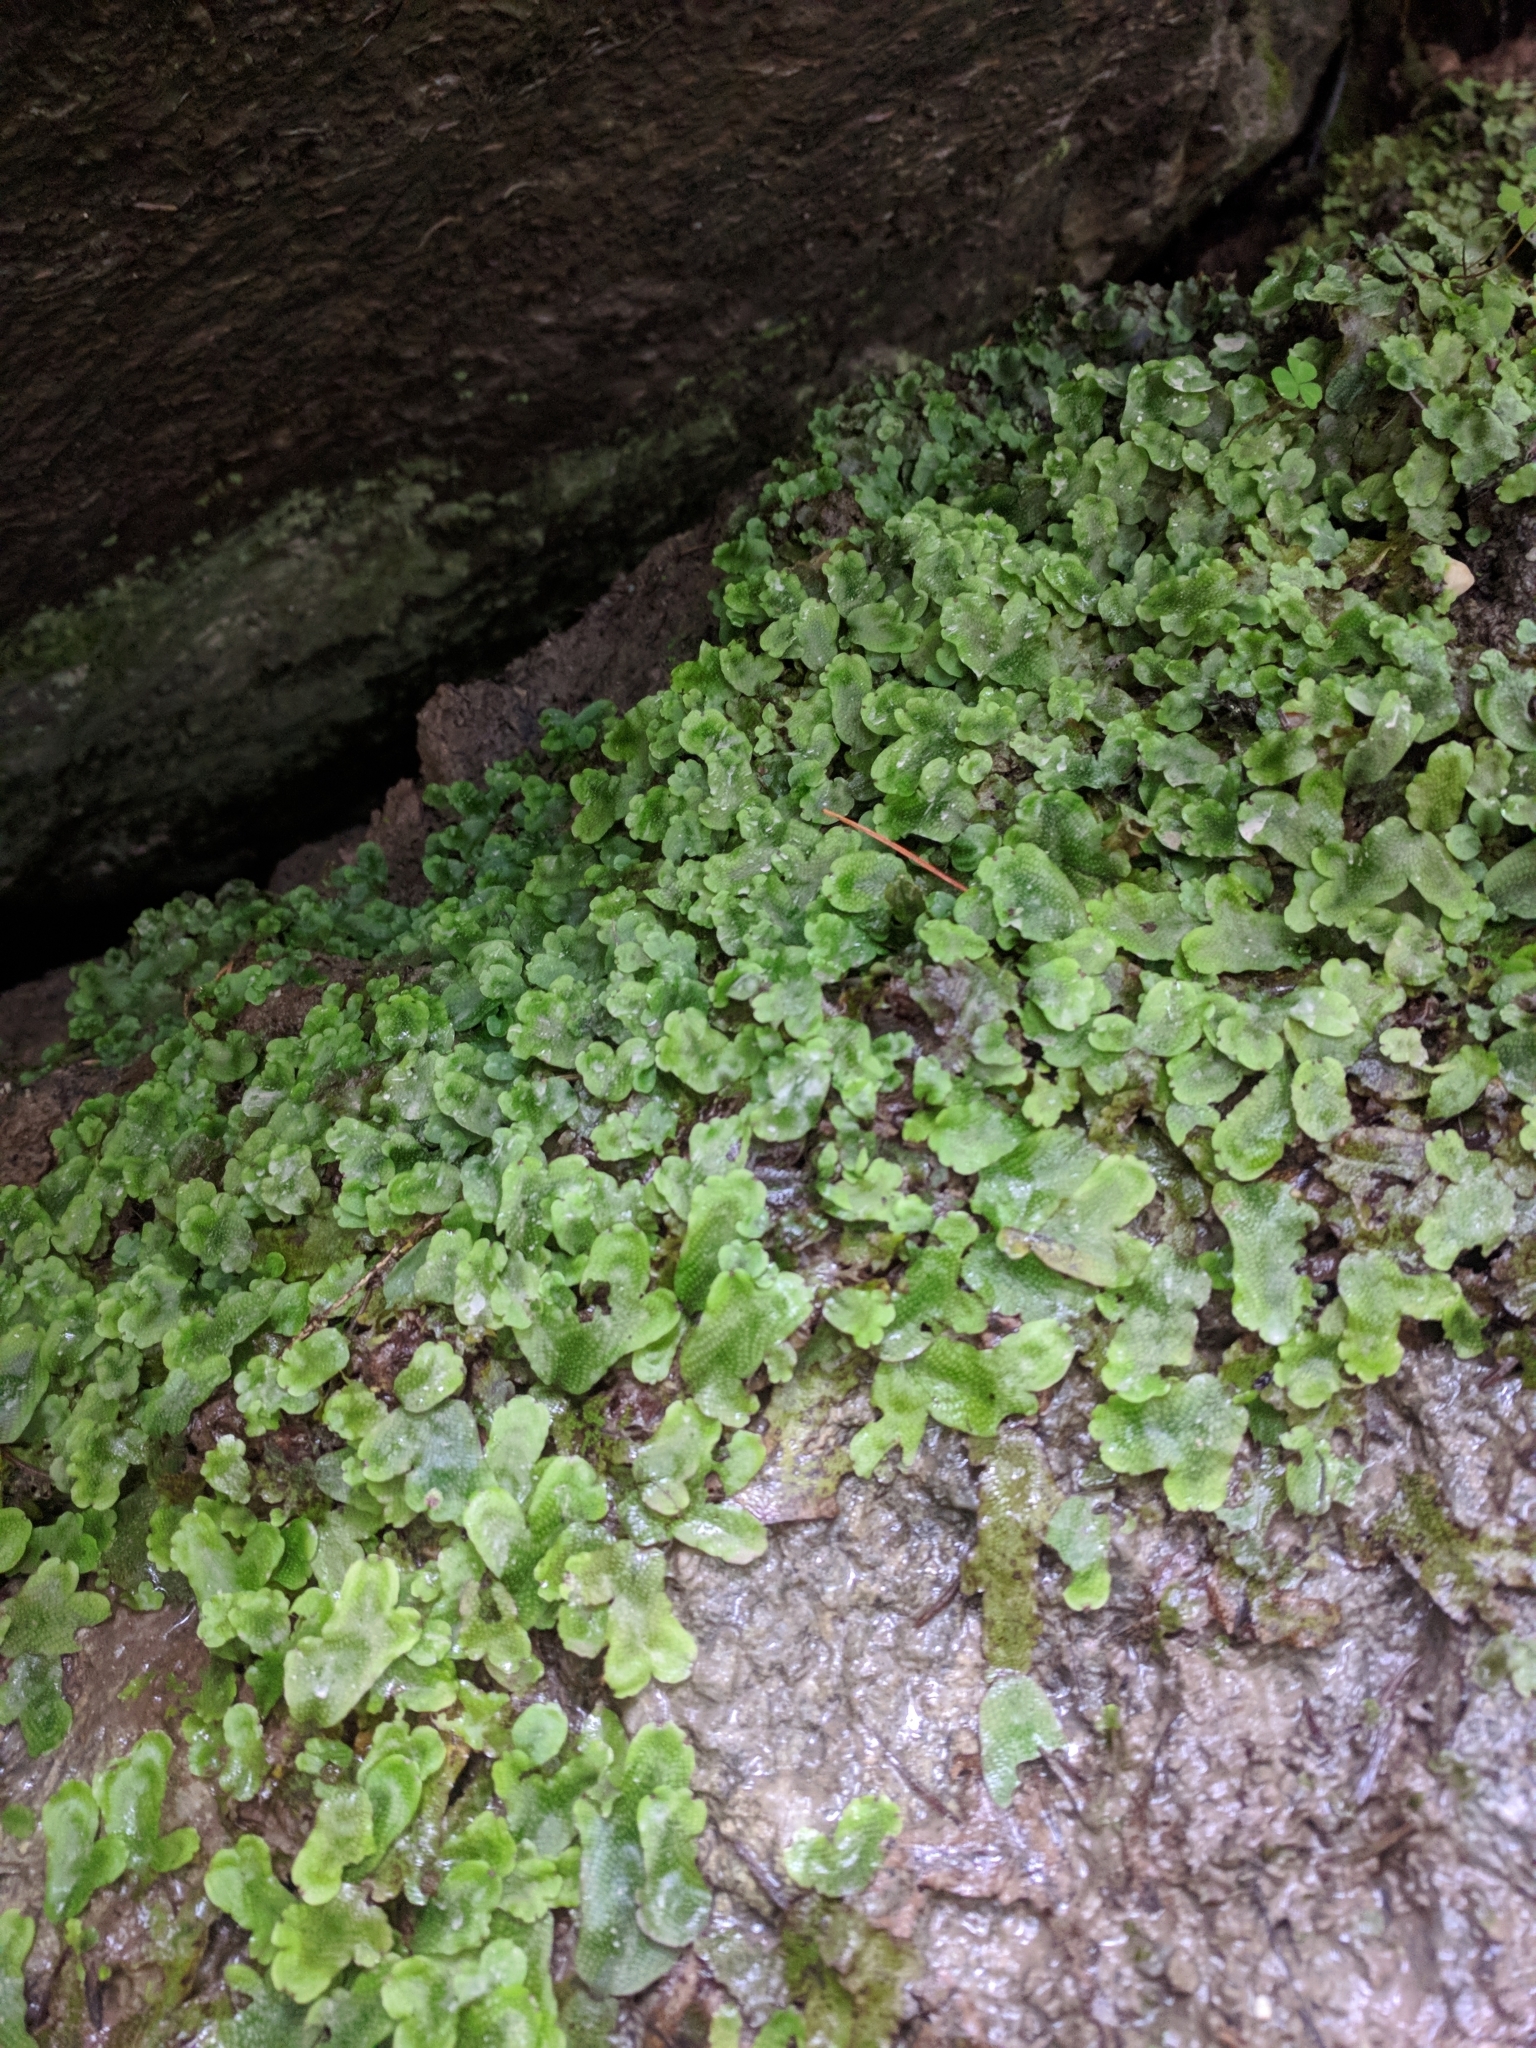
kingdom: Plantae
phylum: Marchantiophyta
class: Marchantiopsida
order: Marchantiales
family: Conocephalaceae
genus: Conocephalum
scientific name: Conocephalum conicum
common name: Great scented liverwort
